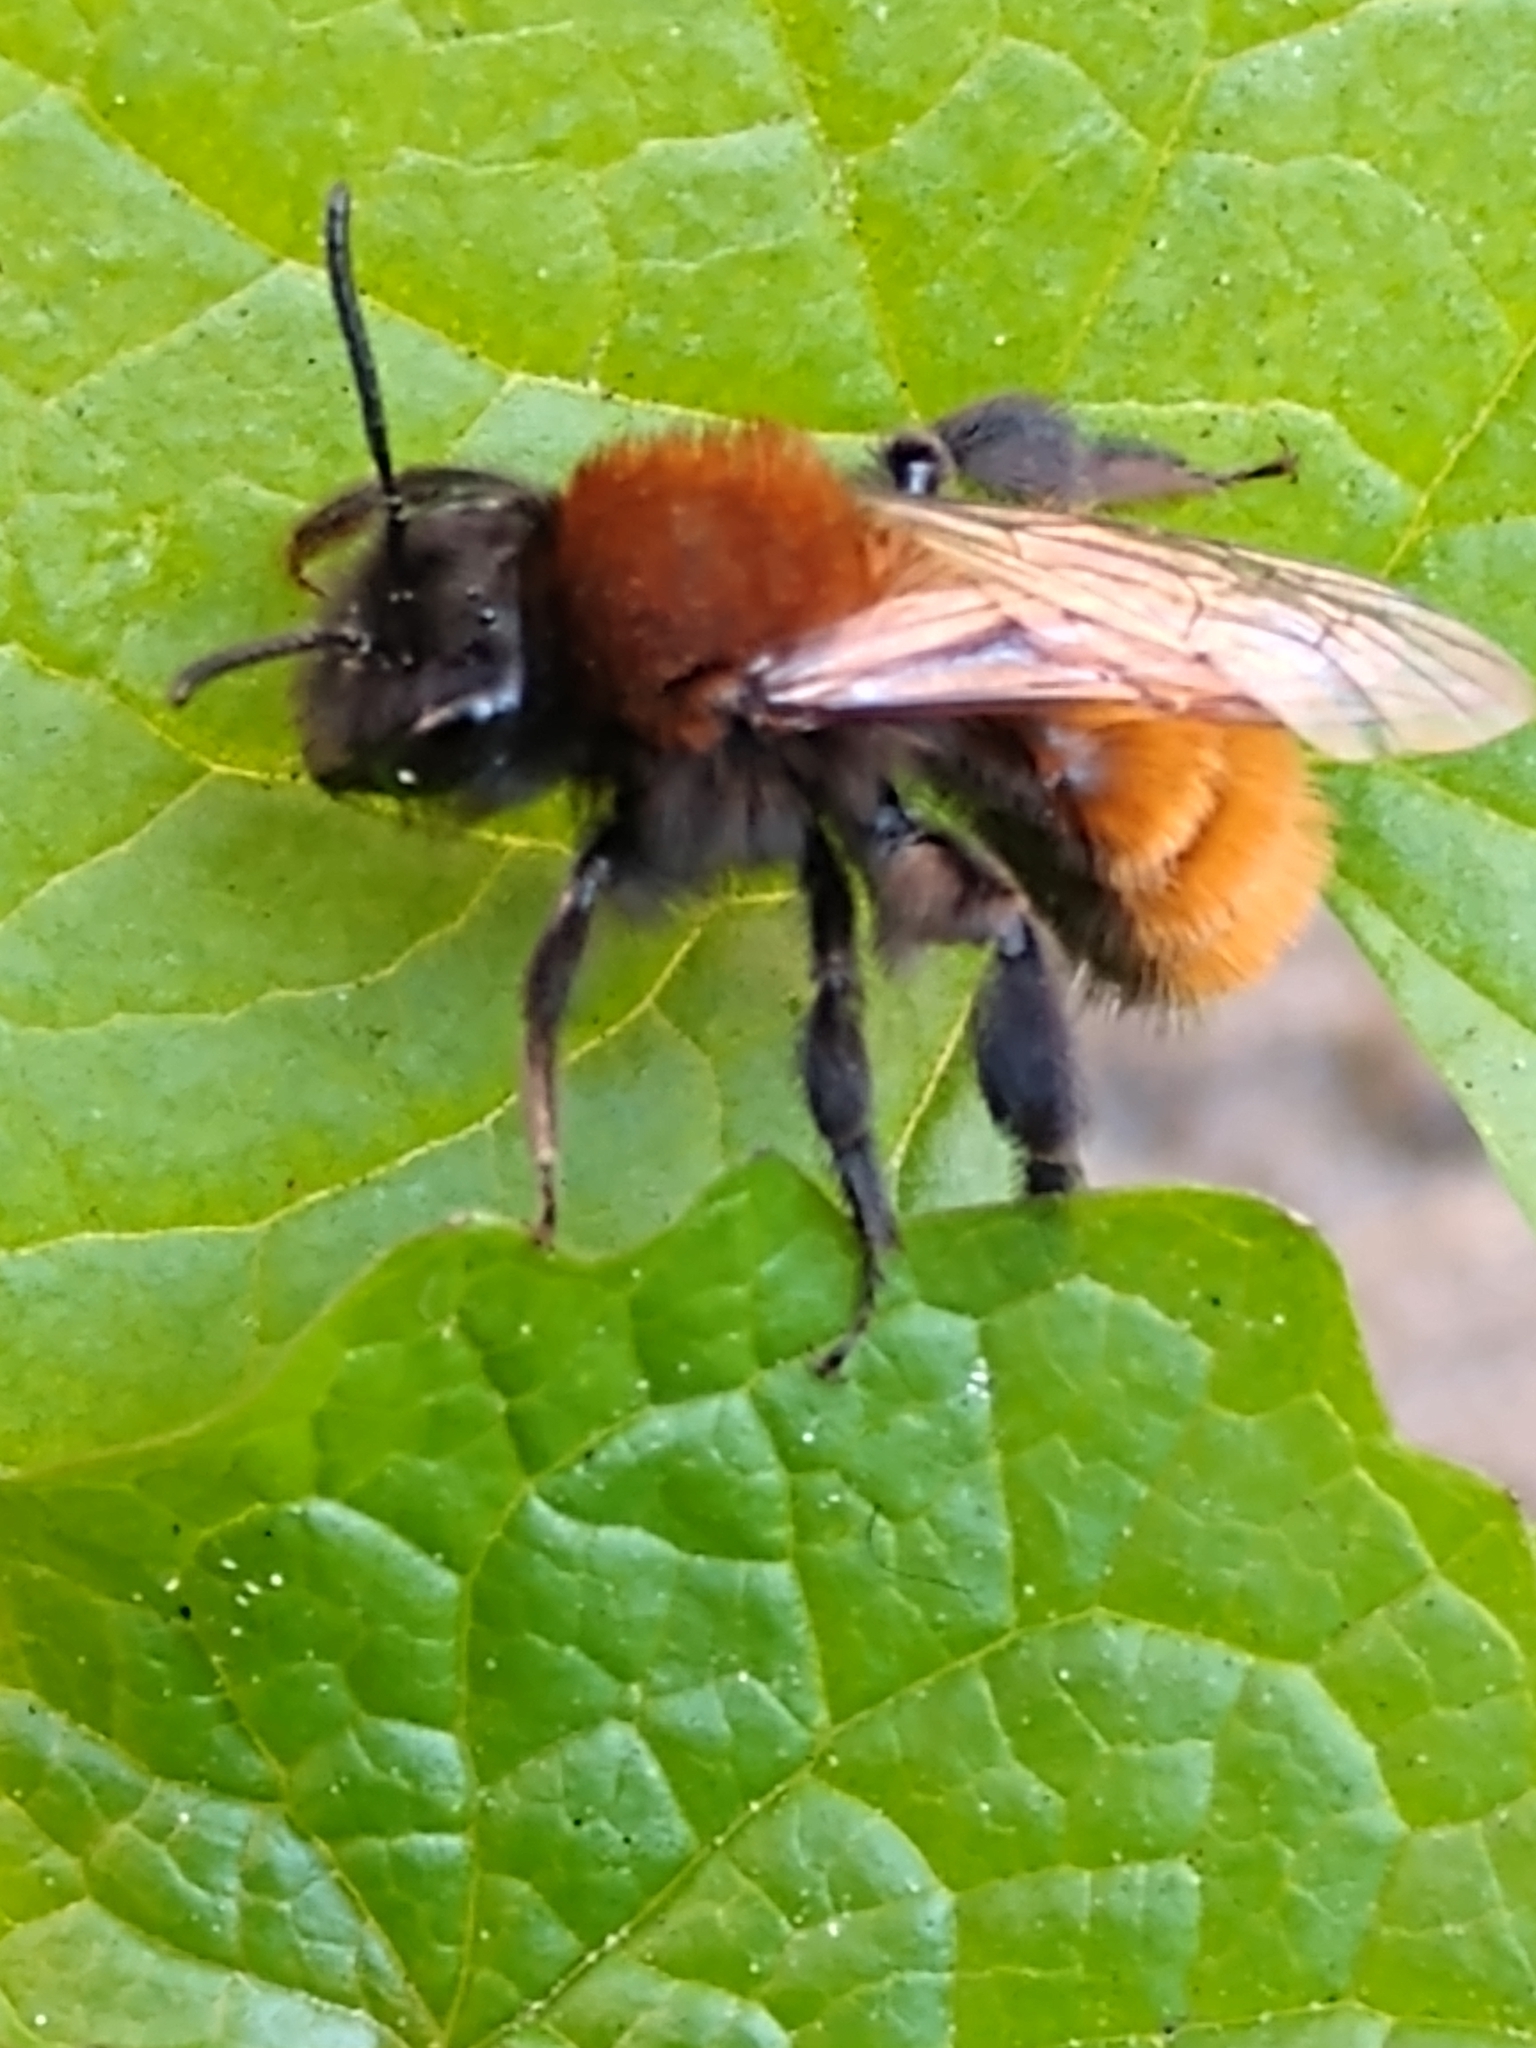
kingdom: Animalia
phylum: Arthropoda
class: Insecta
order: Hymenoptera
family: Andrenidae
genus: Andrena
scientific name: Andrena fulva
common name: Tawny mining bee
